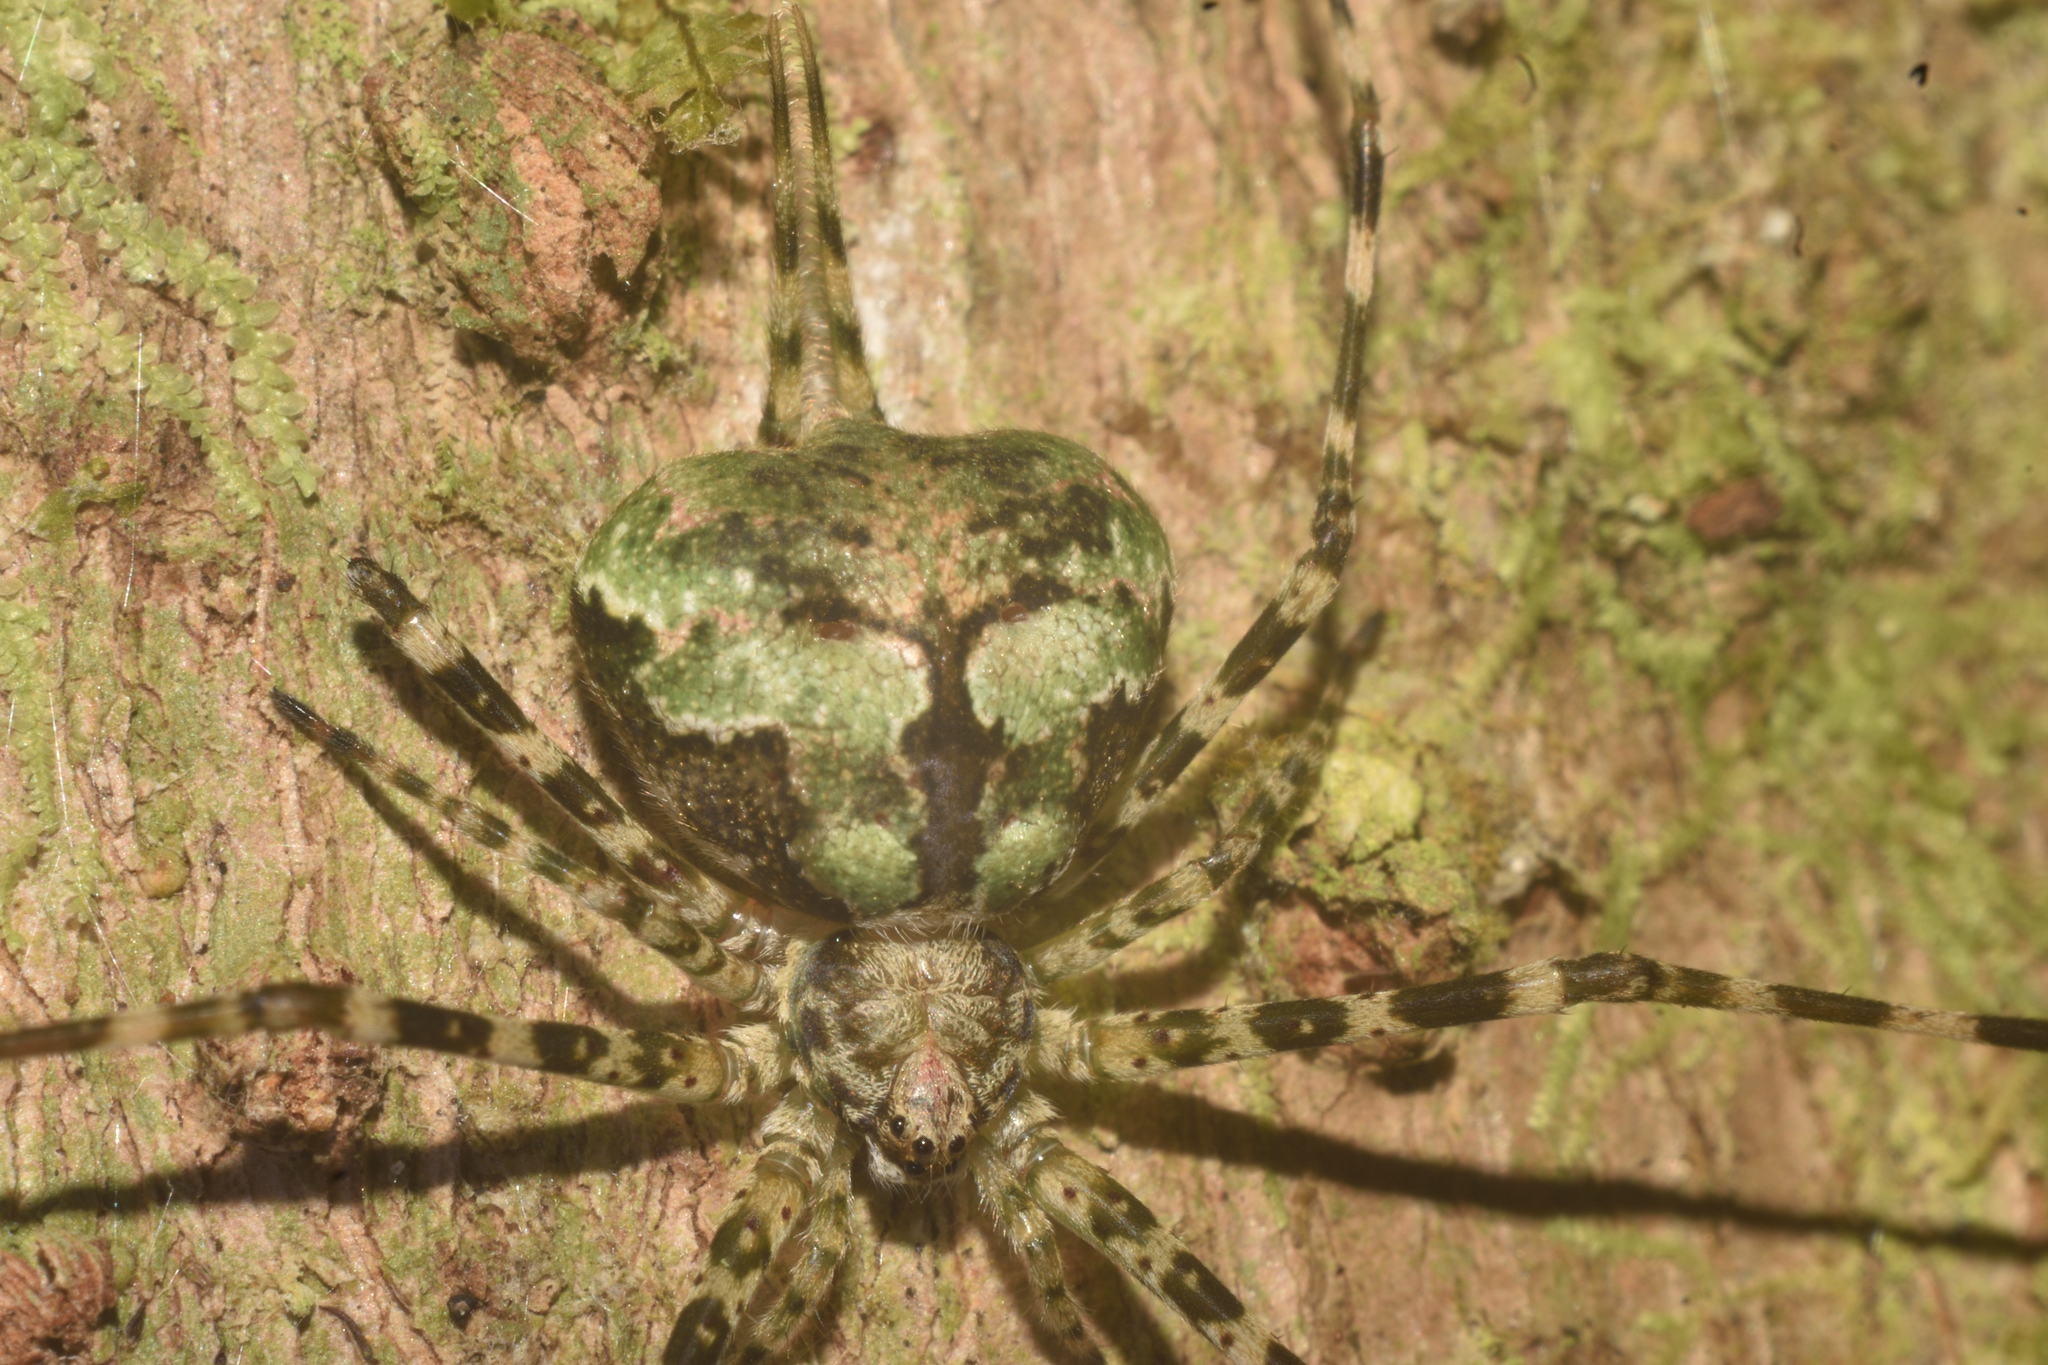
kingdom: Animalia
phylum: Arthropoda
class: Arachnida
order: Araneae
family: Hersiliidae
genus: Neotama
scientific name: Neotama mexicana
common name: Tree trunk spiders
